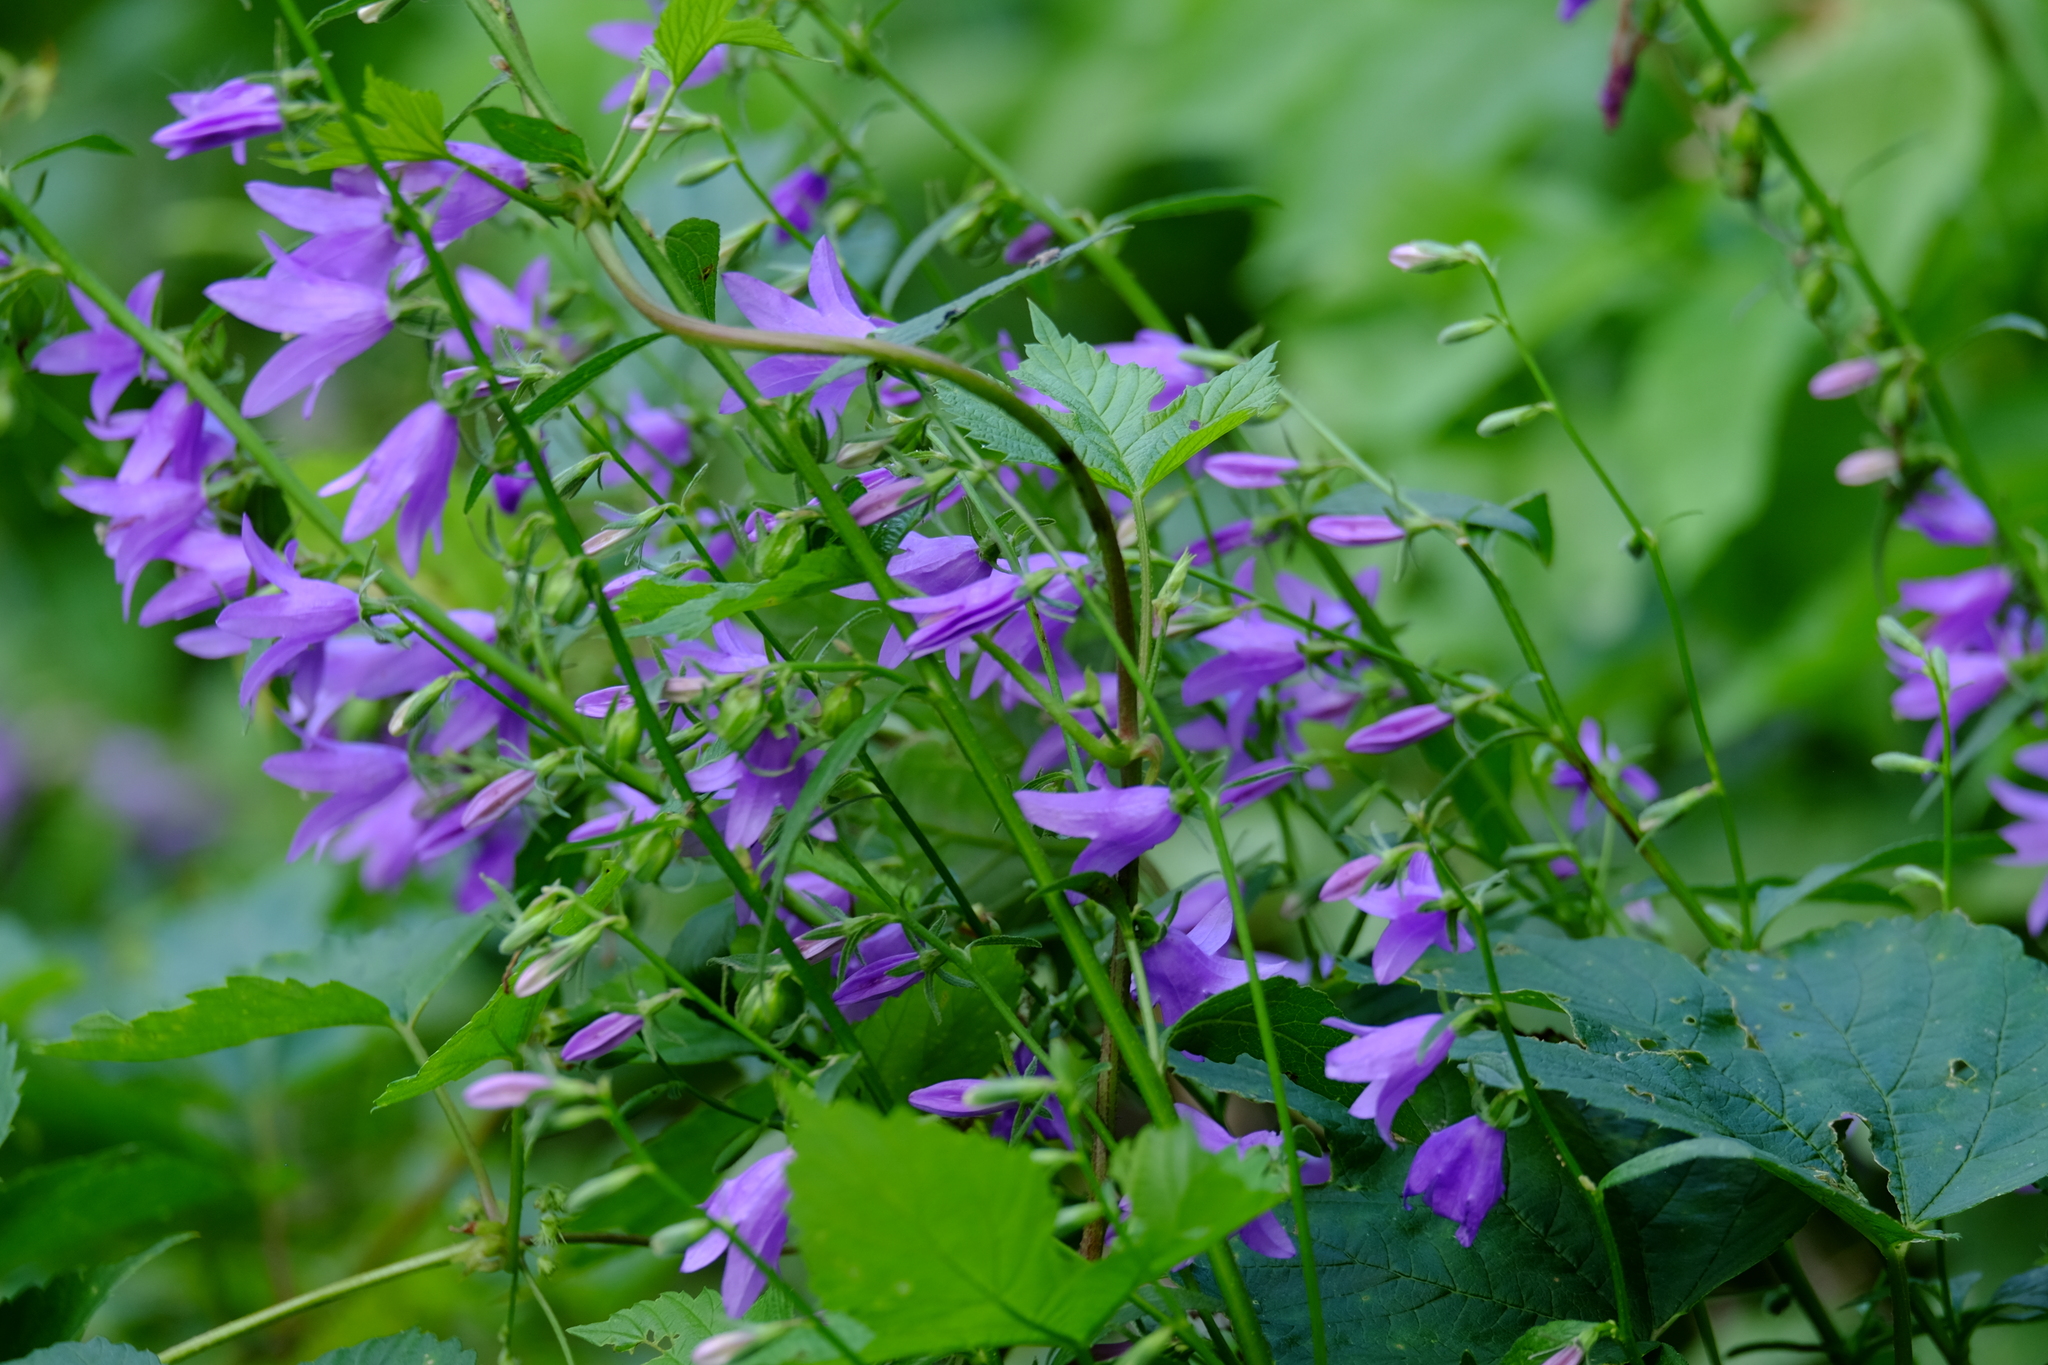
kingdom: Plantae
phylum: Tracheophyta
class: Magnoliopsida
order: Asterales
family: Campanulaceae
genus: Campanula
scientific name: Campanula rapunculoides
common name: Creeping bellflower
